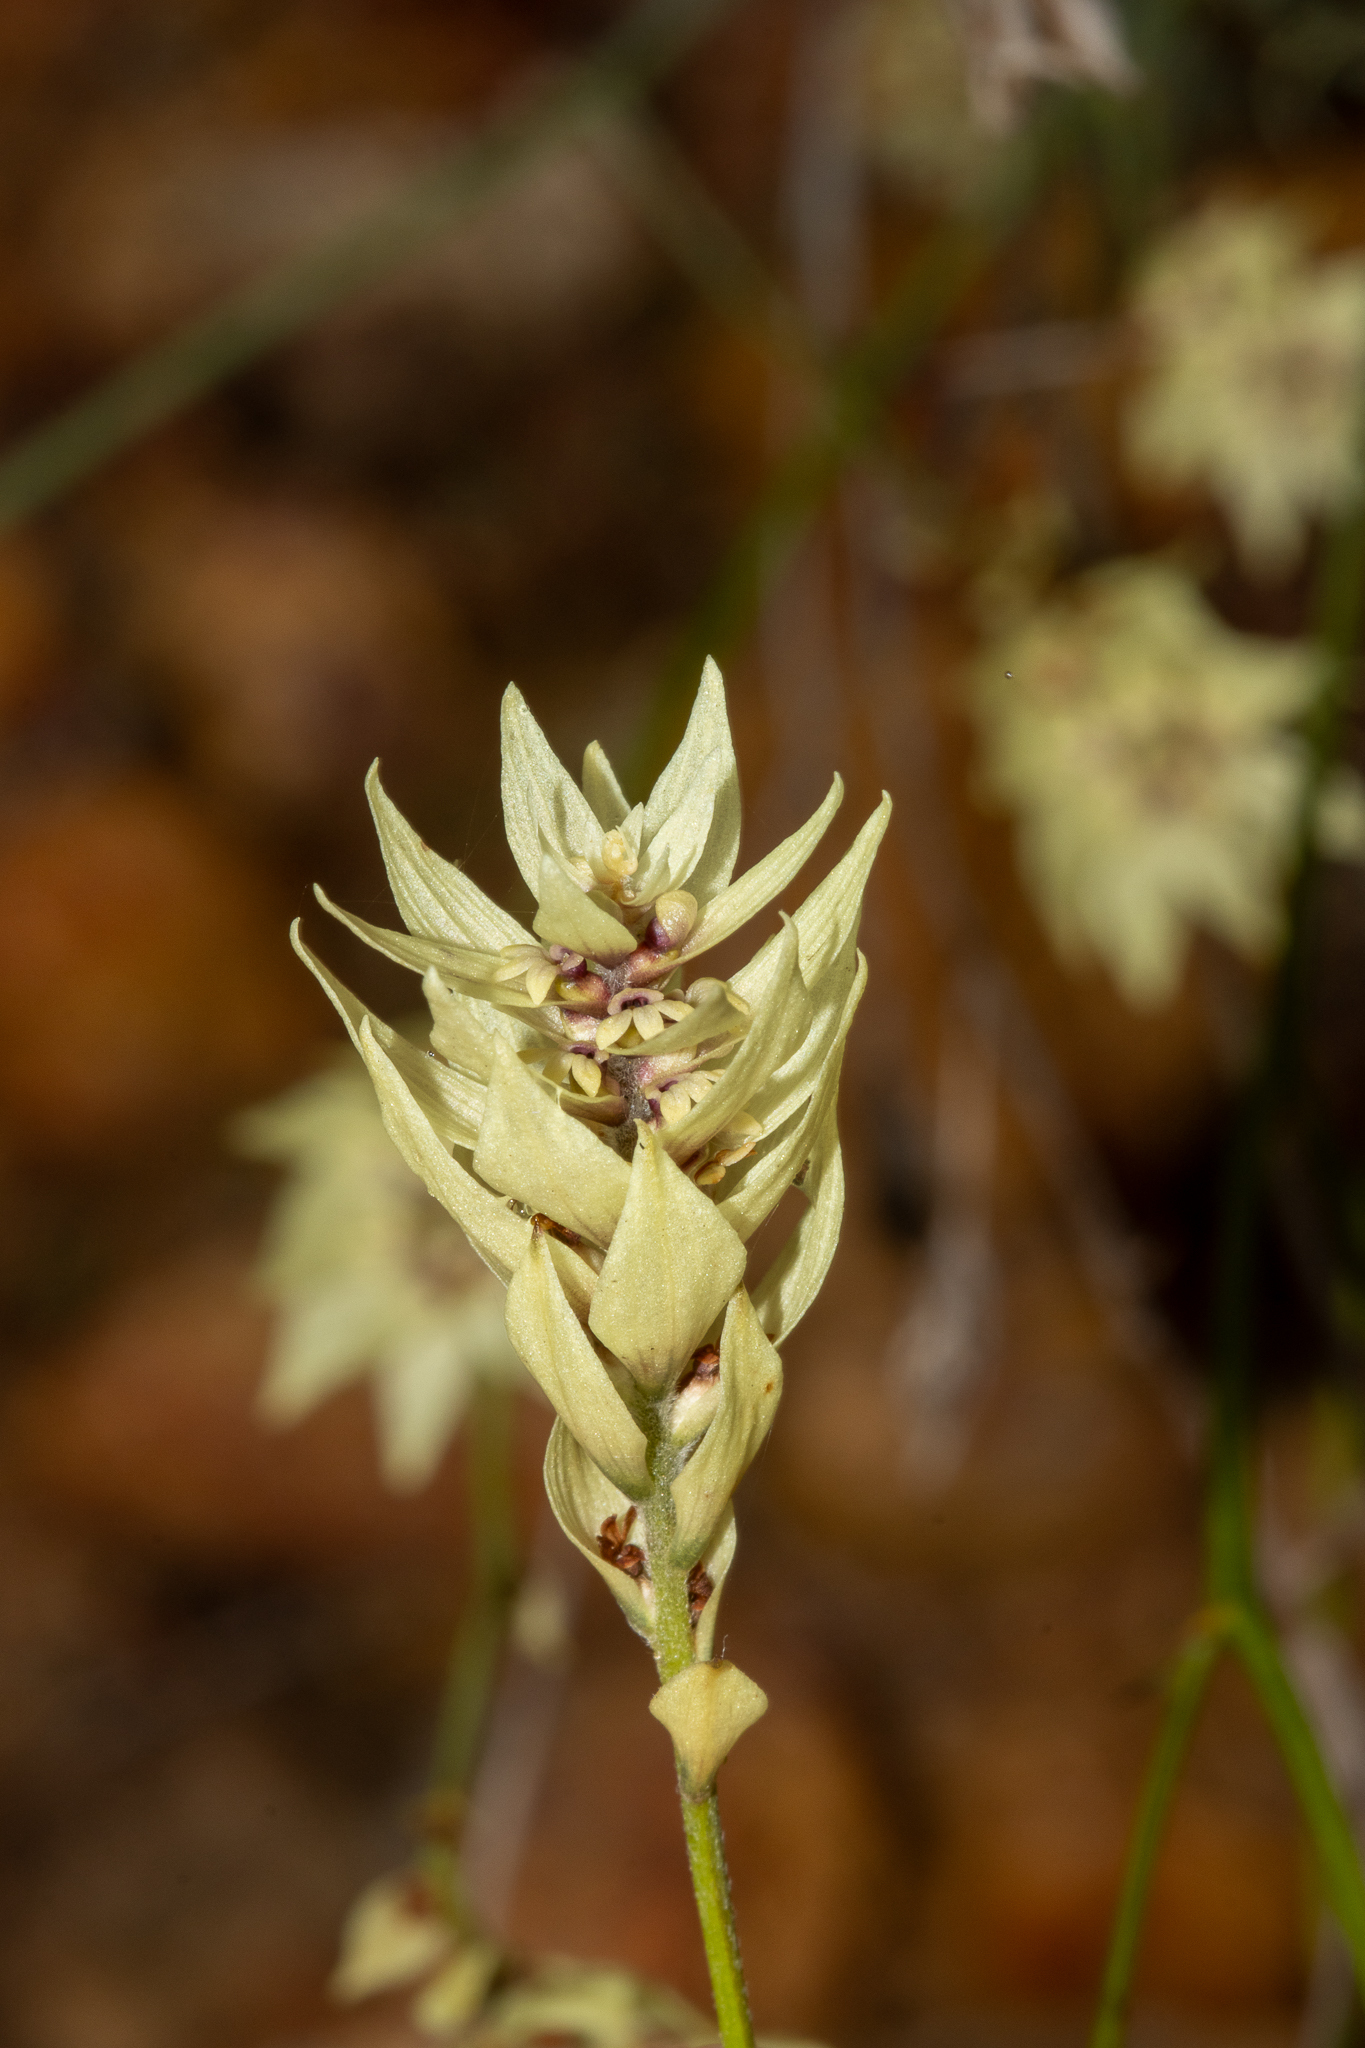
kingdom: Plantae
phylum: Tracheophyta
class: Magnoliopsida
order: Proteales
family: Proteaceae
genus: Conospermum
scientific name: Conospermum glumaceum
